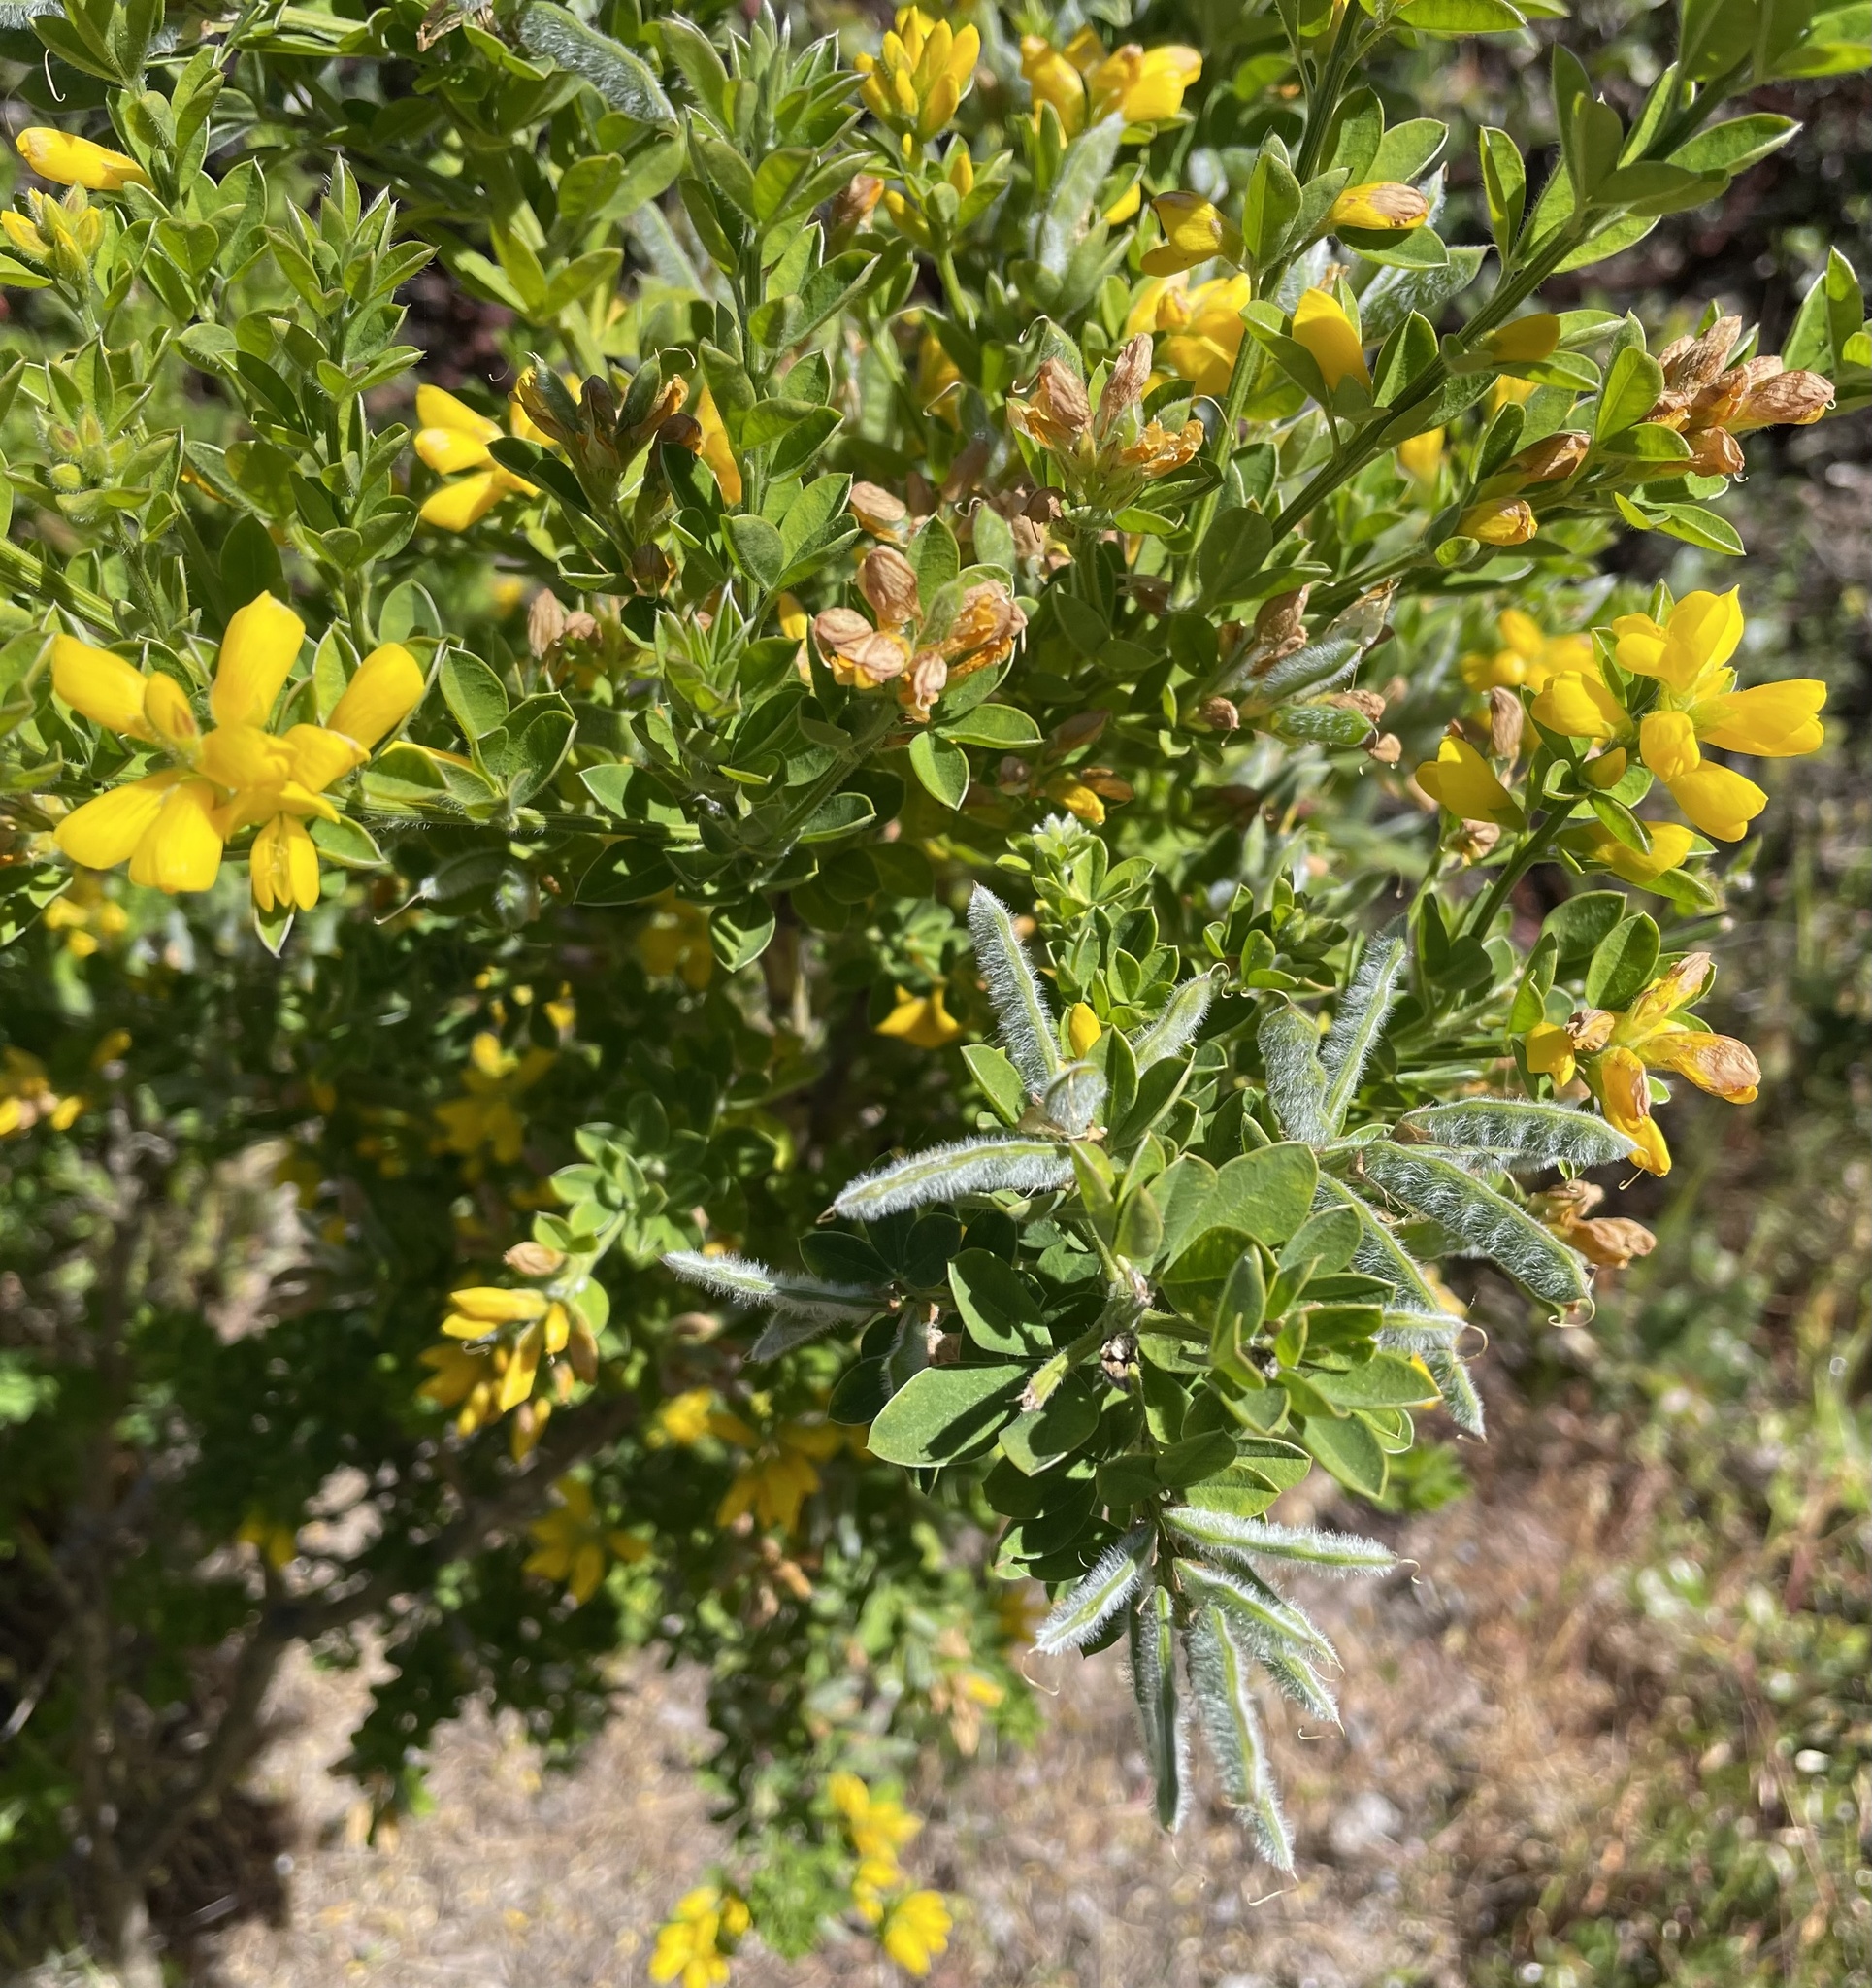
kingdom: Plantae
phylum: Tracheophyta
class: Magnoliopsida
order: Fabales
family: Fabaceae
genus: Genista
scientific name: Genista monspessulana
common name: Montpellier broom
